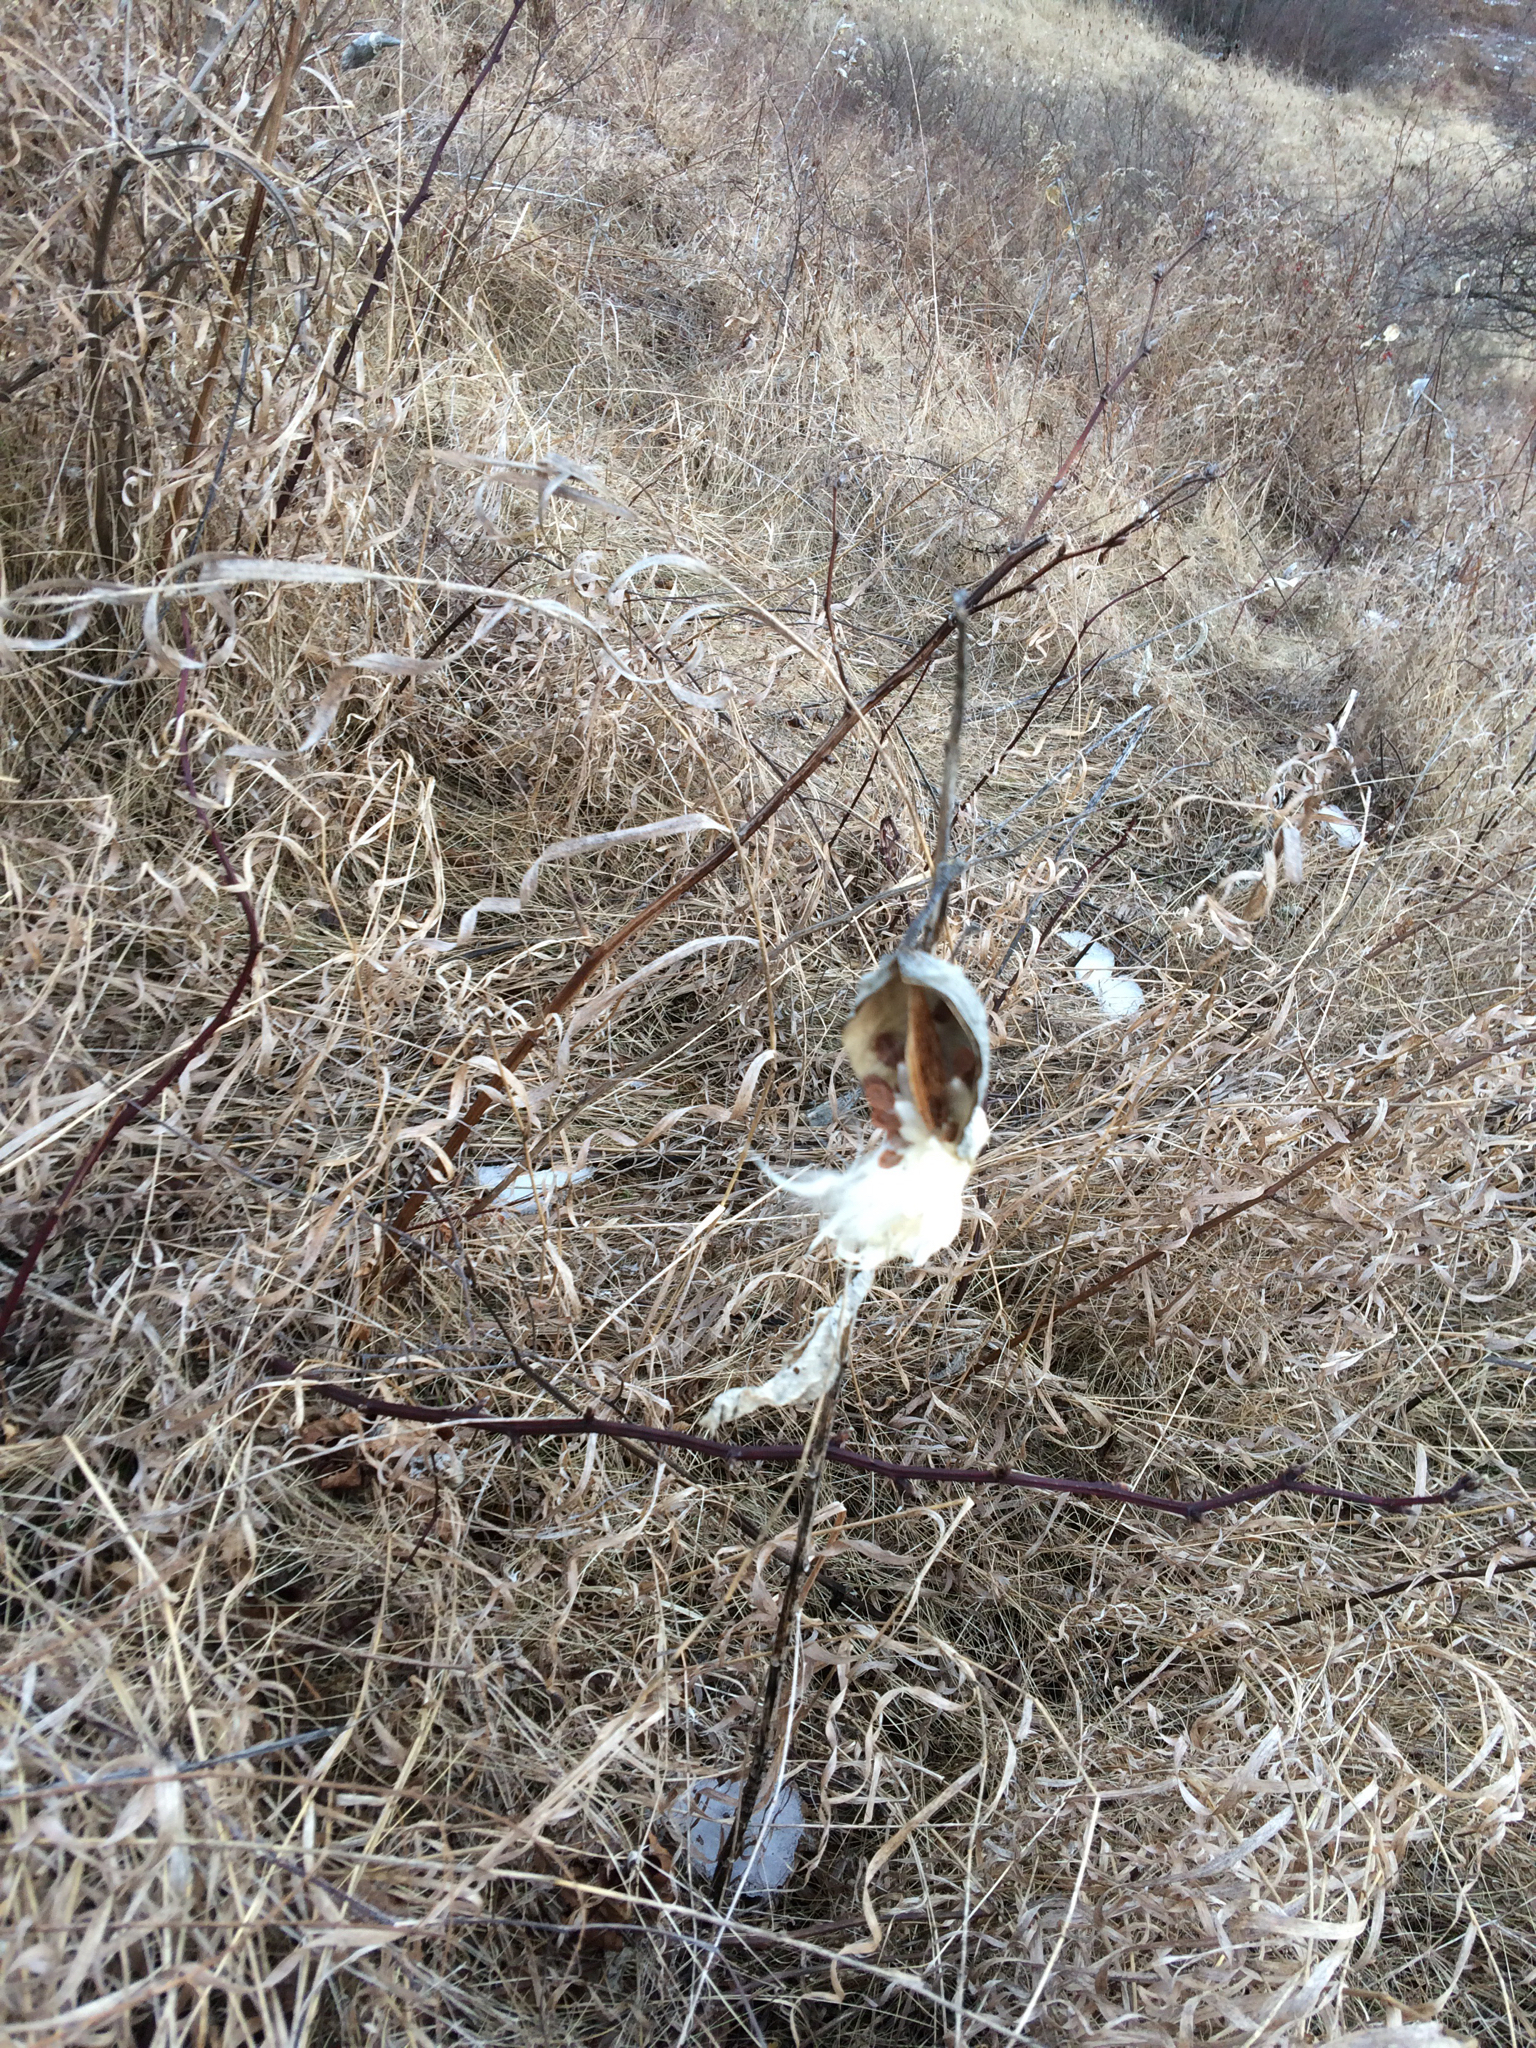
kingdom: Plantae
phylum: Tracheophyta
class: Magnoliopsida
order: Gentianales
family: Apocynaceae
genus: Asclepias
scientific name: Asclepias syriaca
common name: Common milkweed
